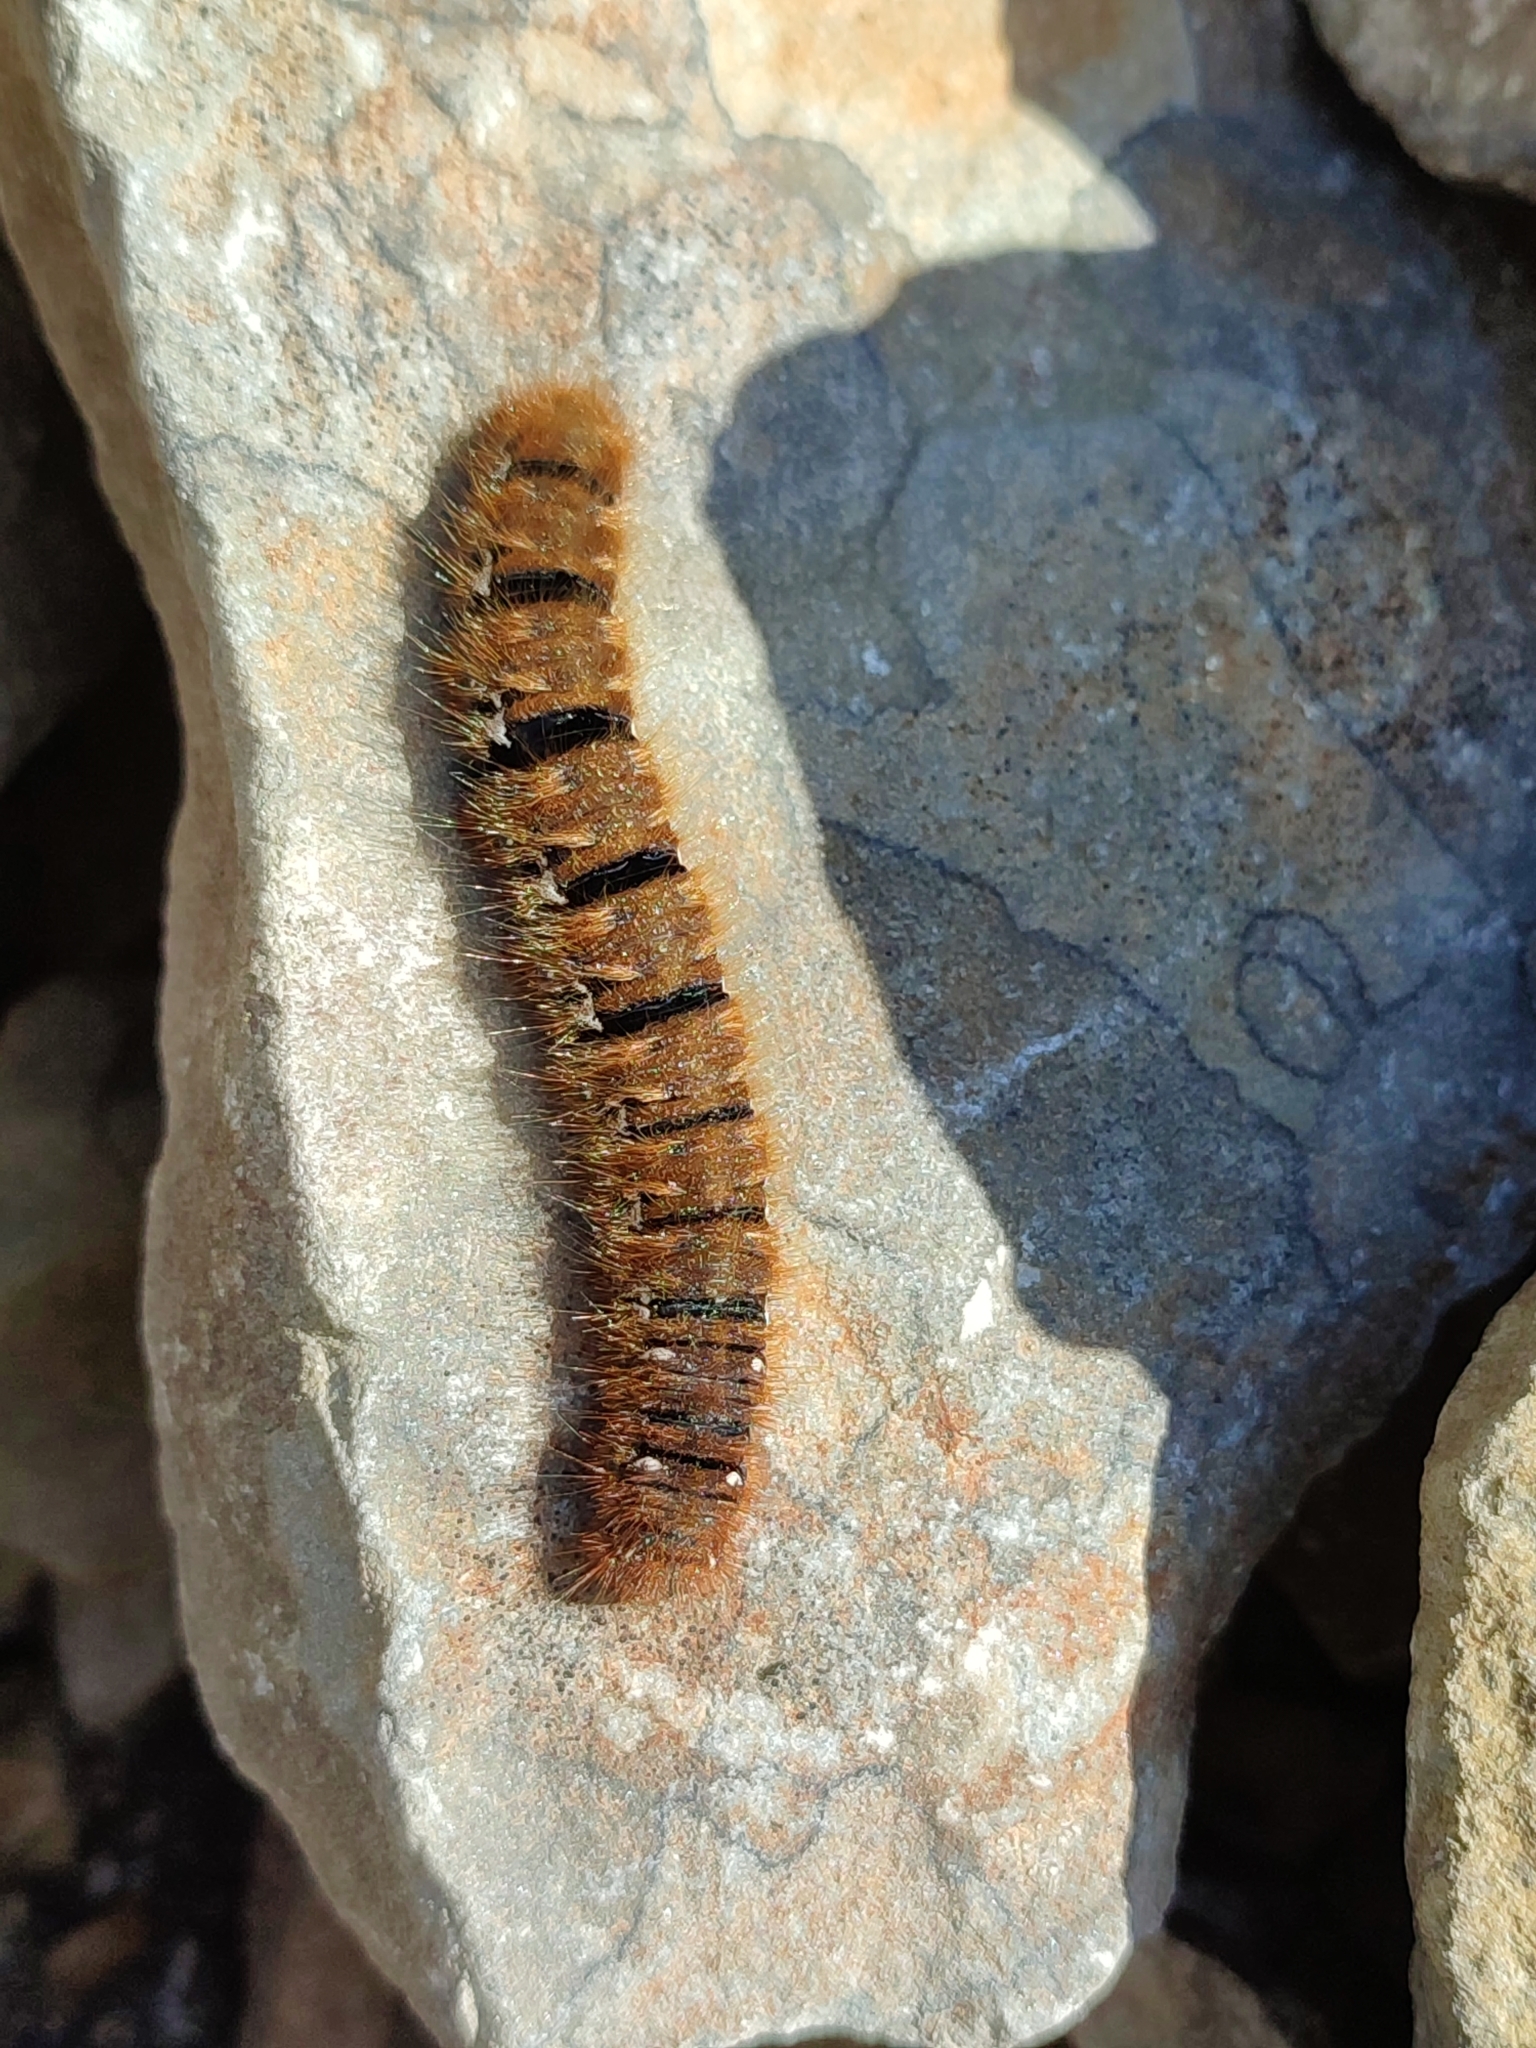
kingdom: Animalia
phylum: Arthropoda
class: Insecta
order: Lepidoptera
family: Lasiocampidae
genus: Lasiocampa
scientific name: Lasiocampa quercus
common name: Oak eggar
